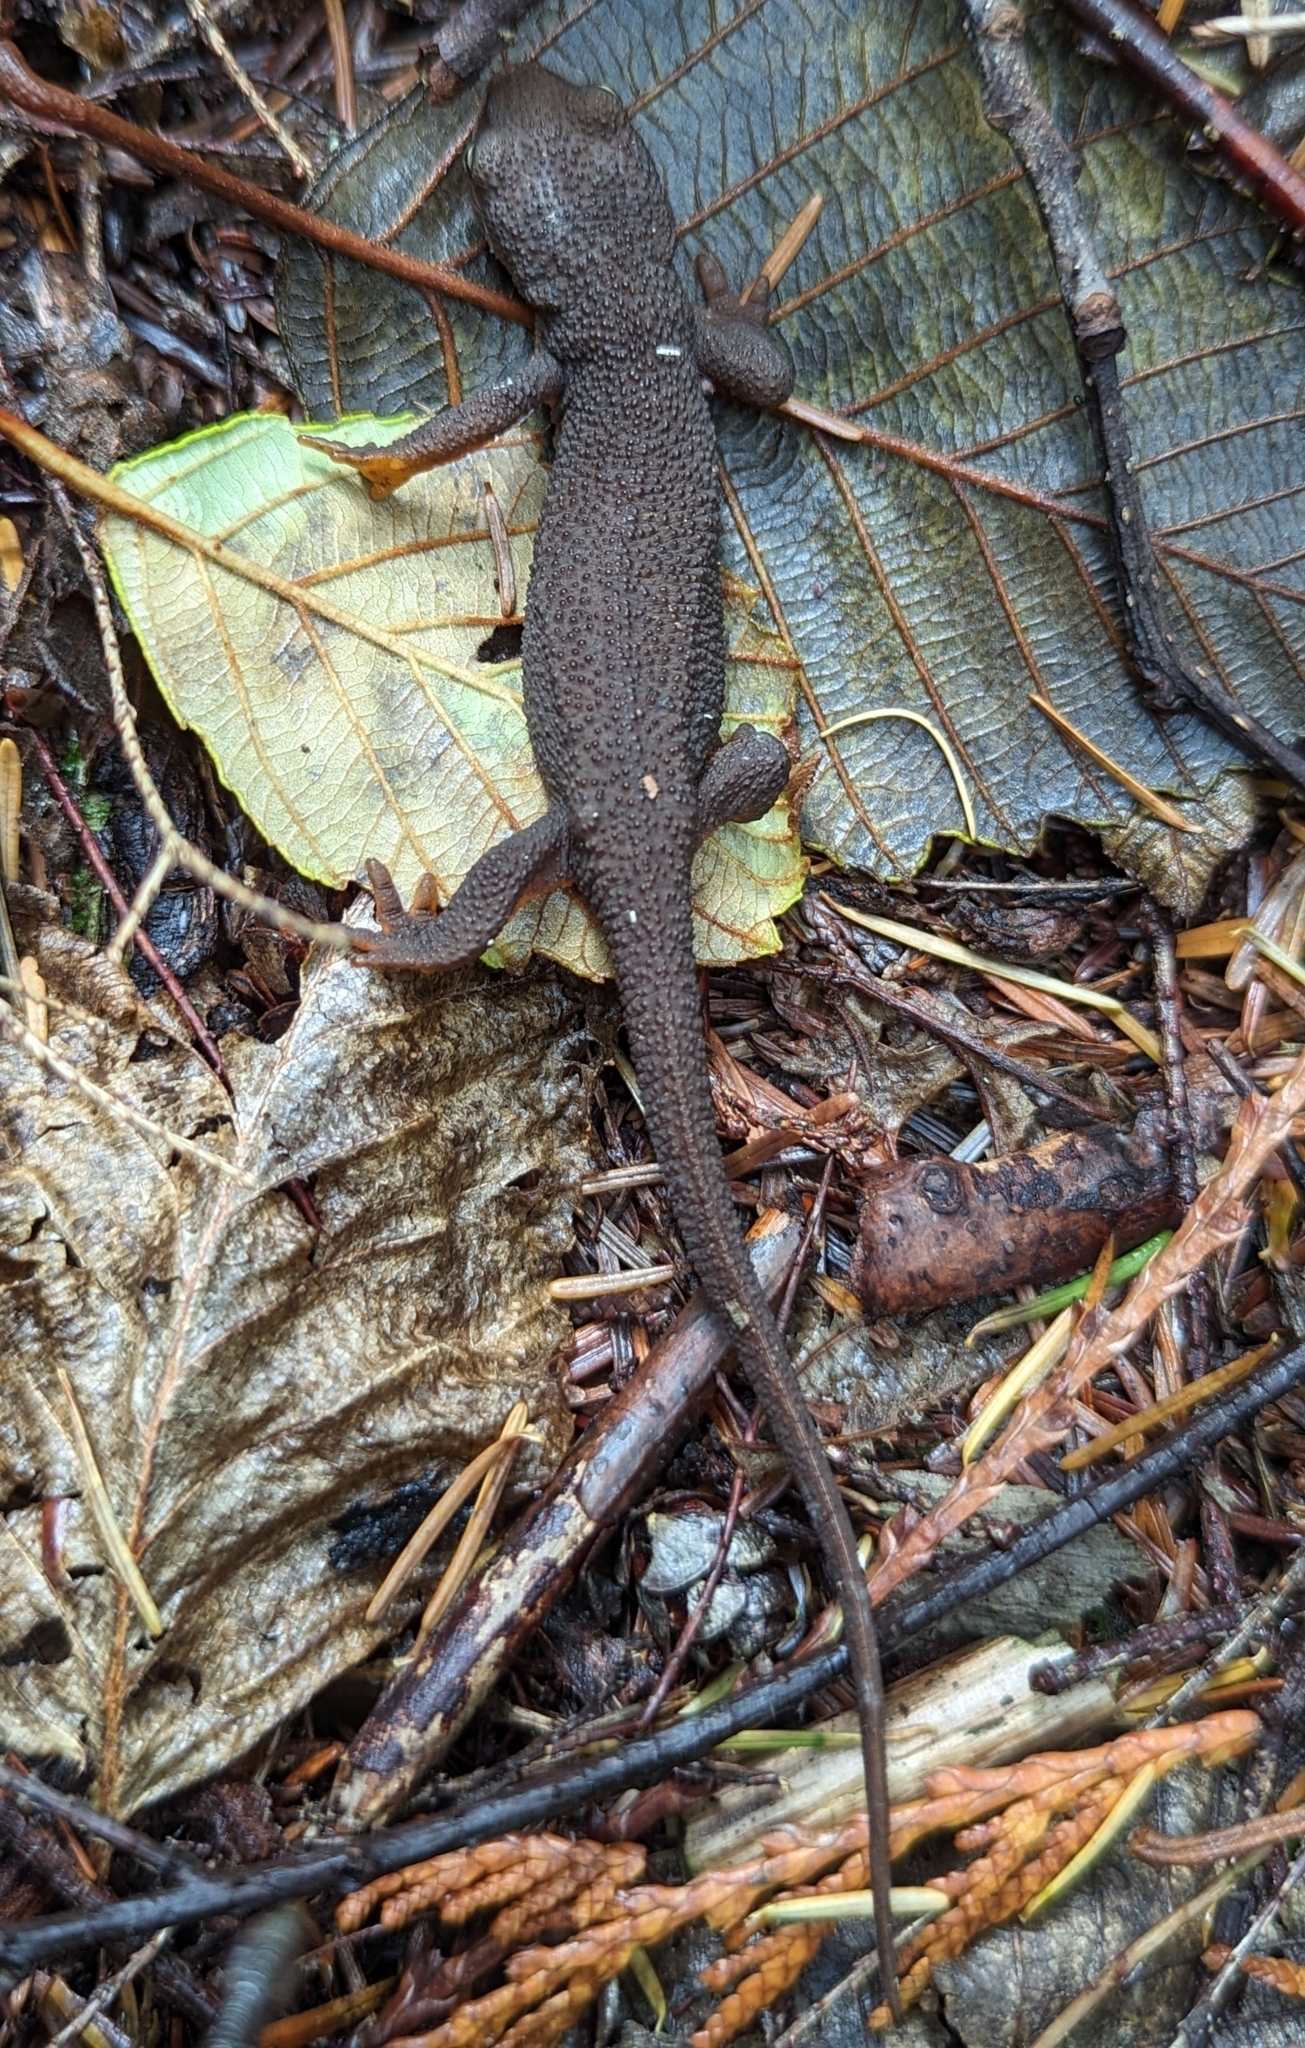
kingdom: Animalia
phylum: Chordata
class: Amphibia
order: Caudata
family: Salamandridae
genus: Taricha
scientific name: Taricha granulosa
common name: Roughskin newt
